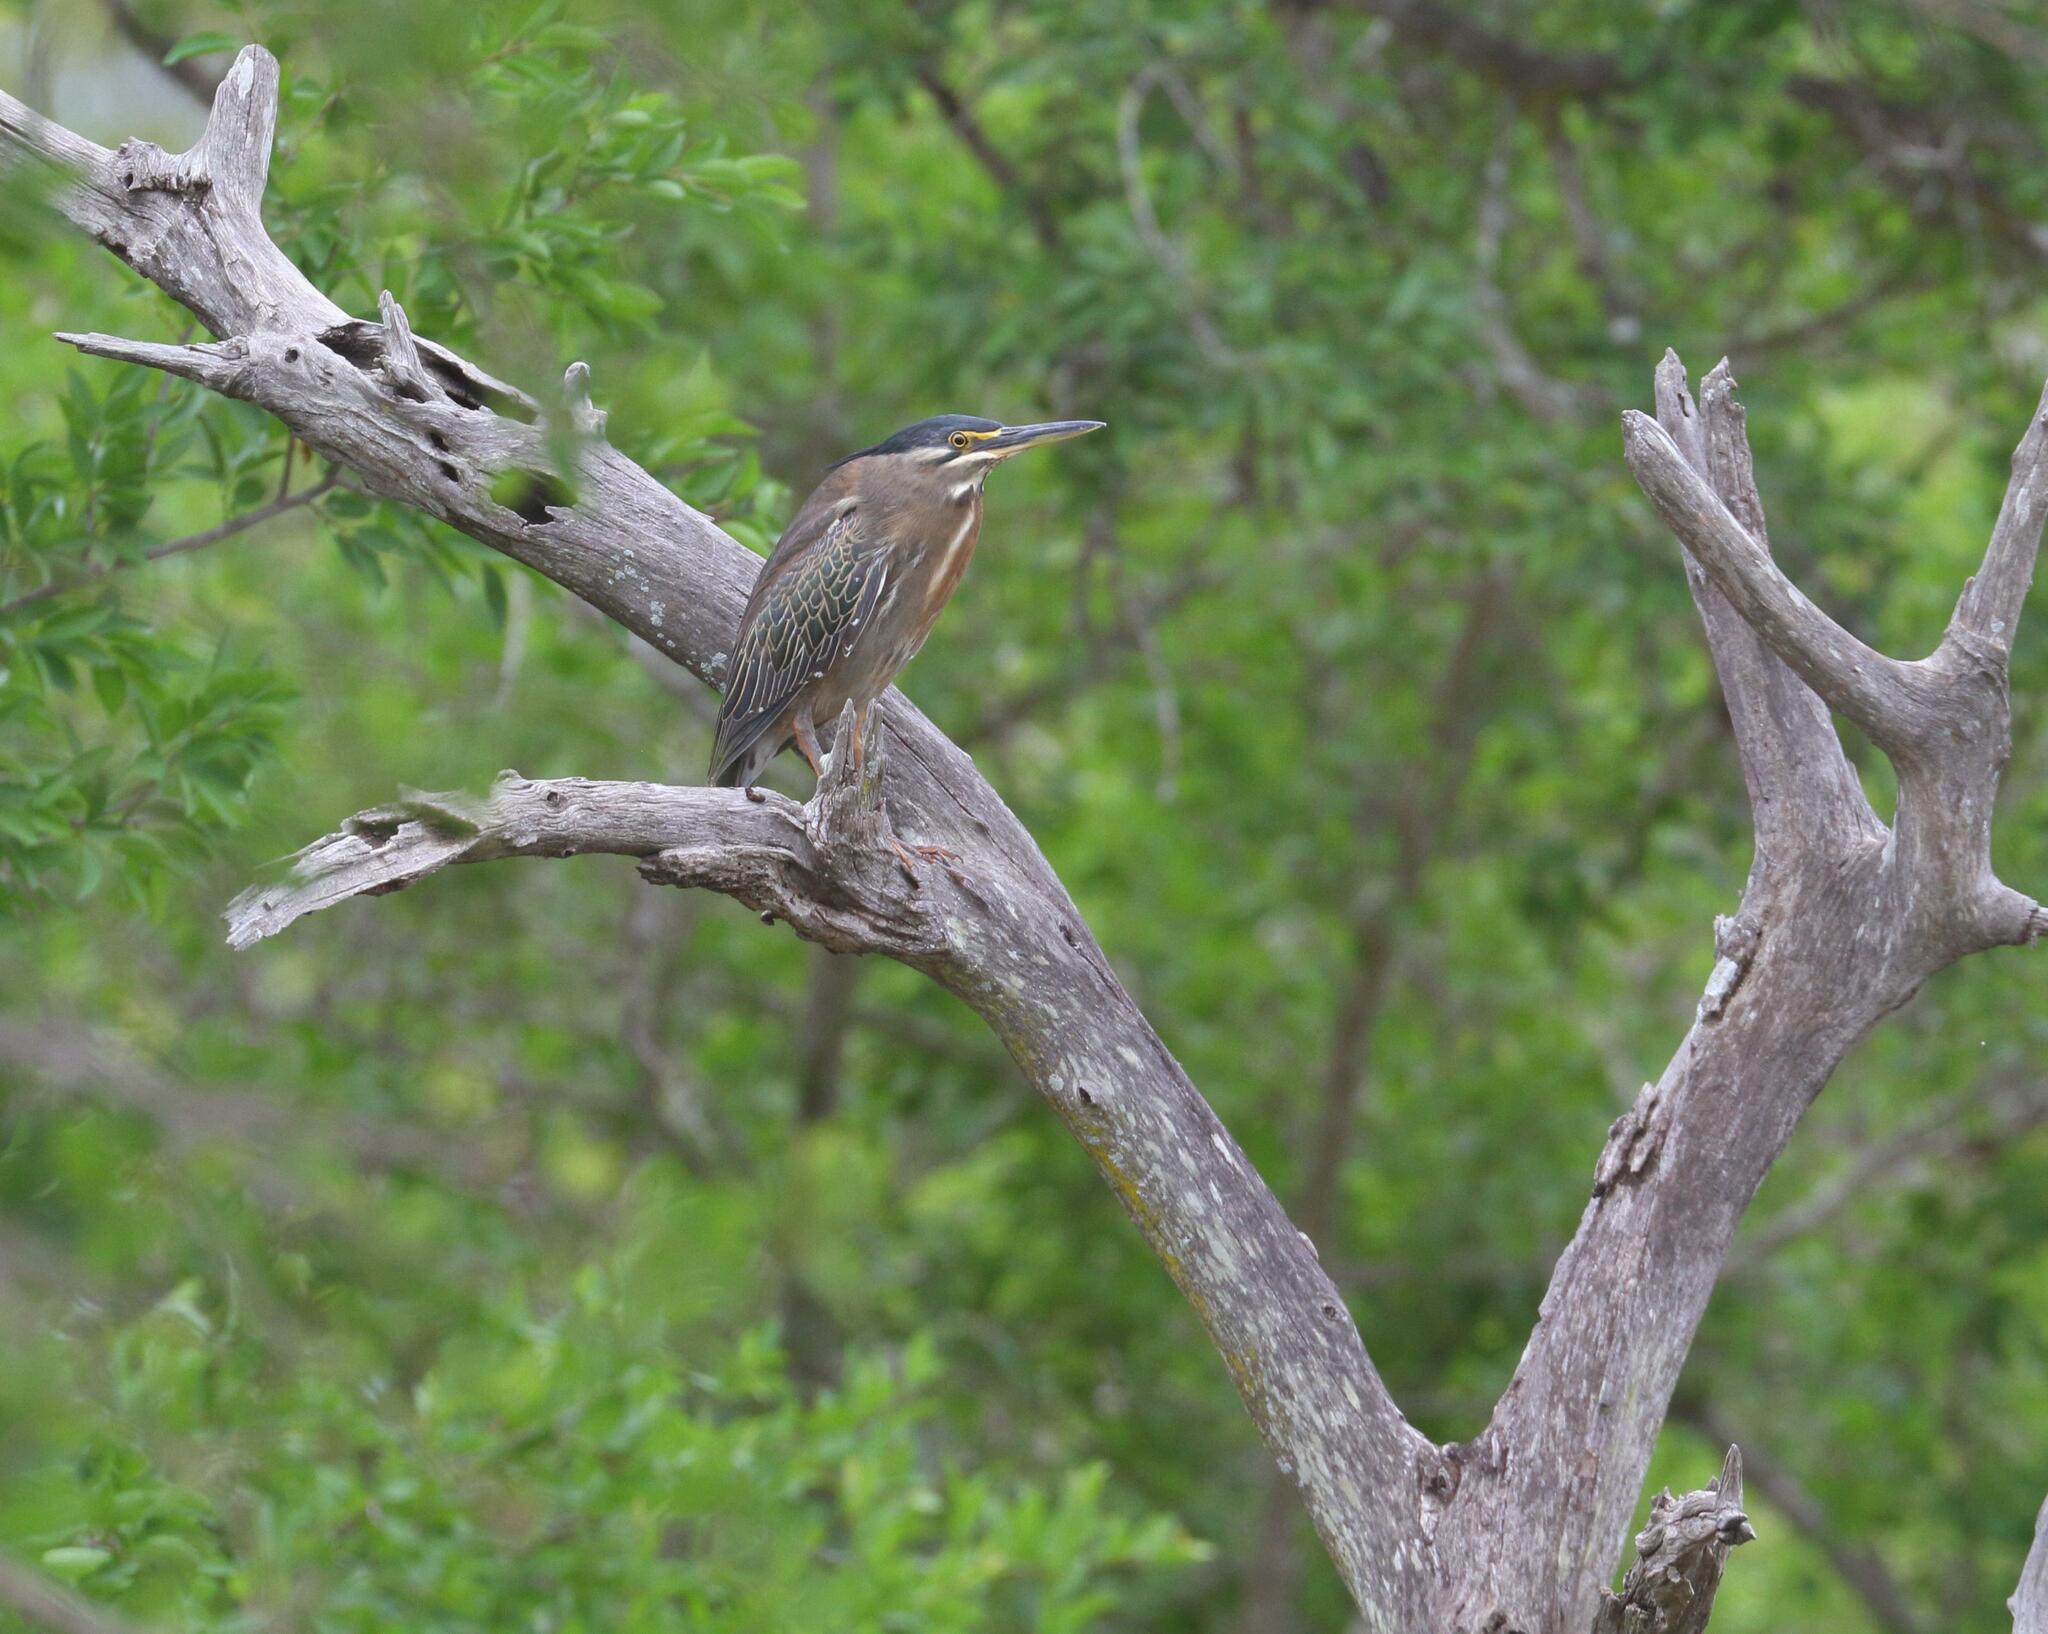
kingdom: Animalia
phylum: Chordata
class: Aves
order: Pelecaniformes
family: Ardeidae
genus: Butorides
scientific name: Butorides striata
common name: Striated heron
